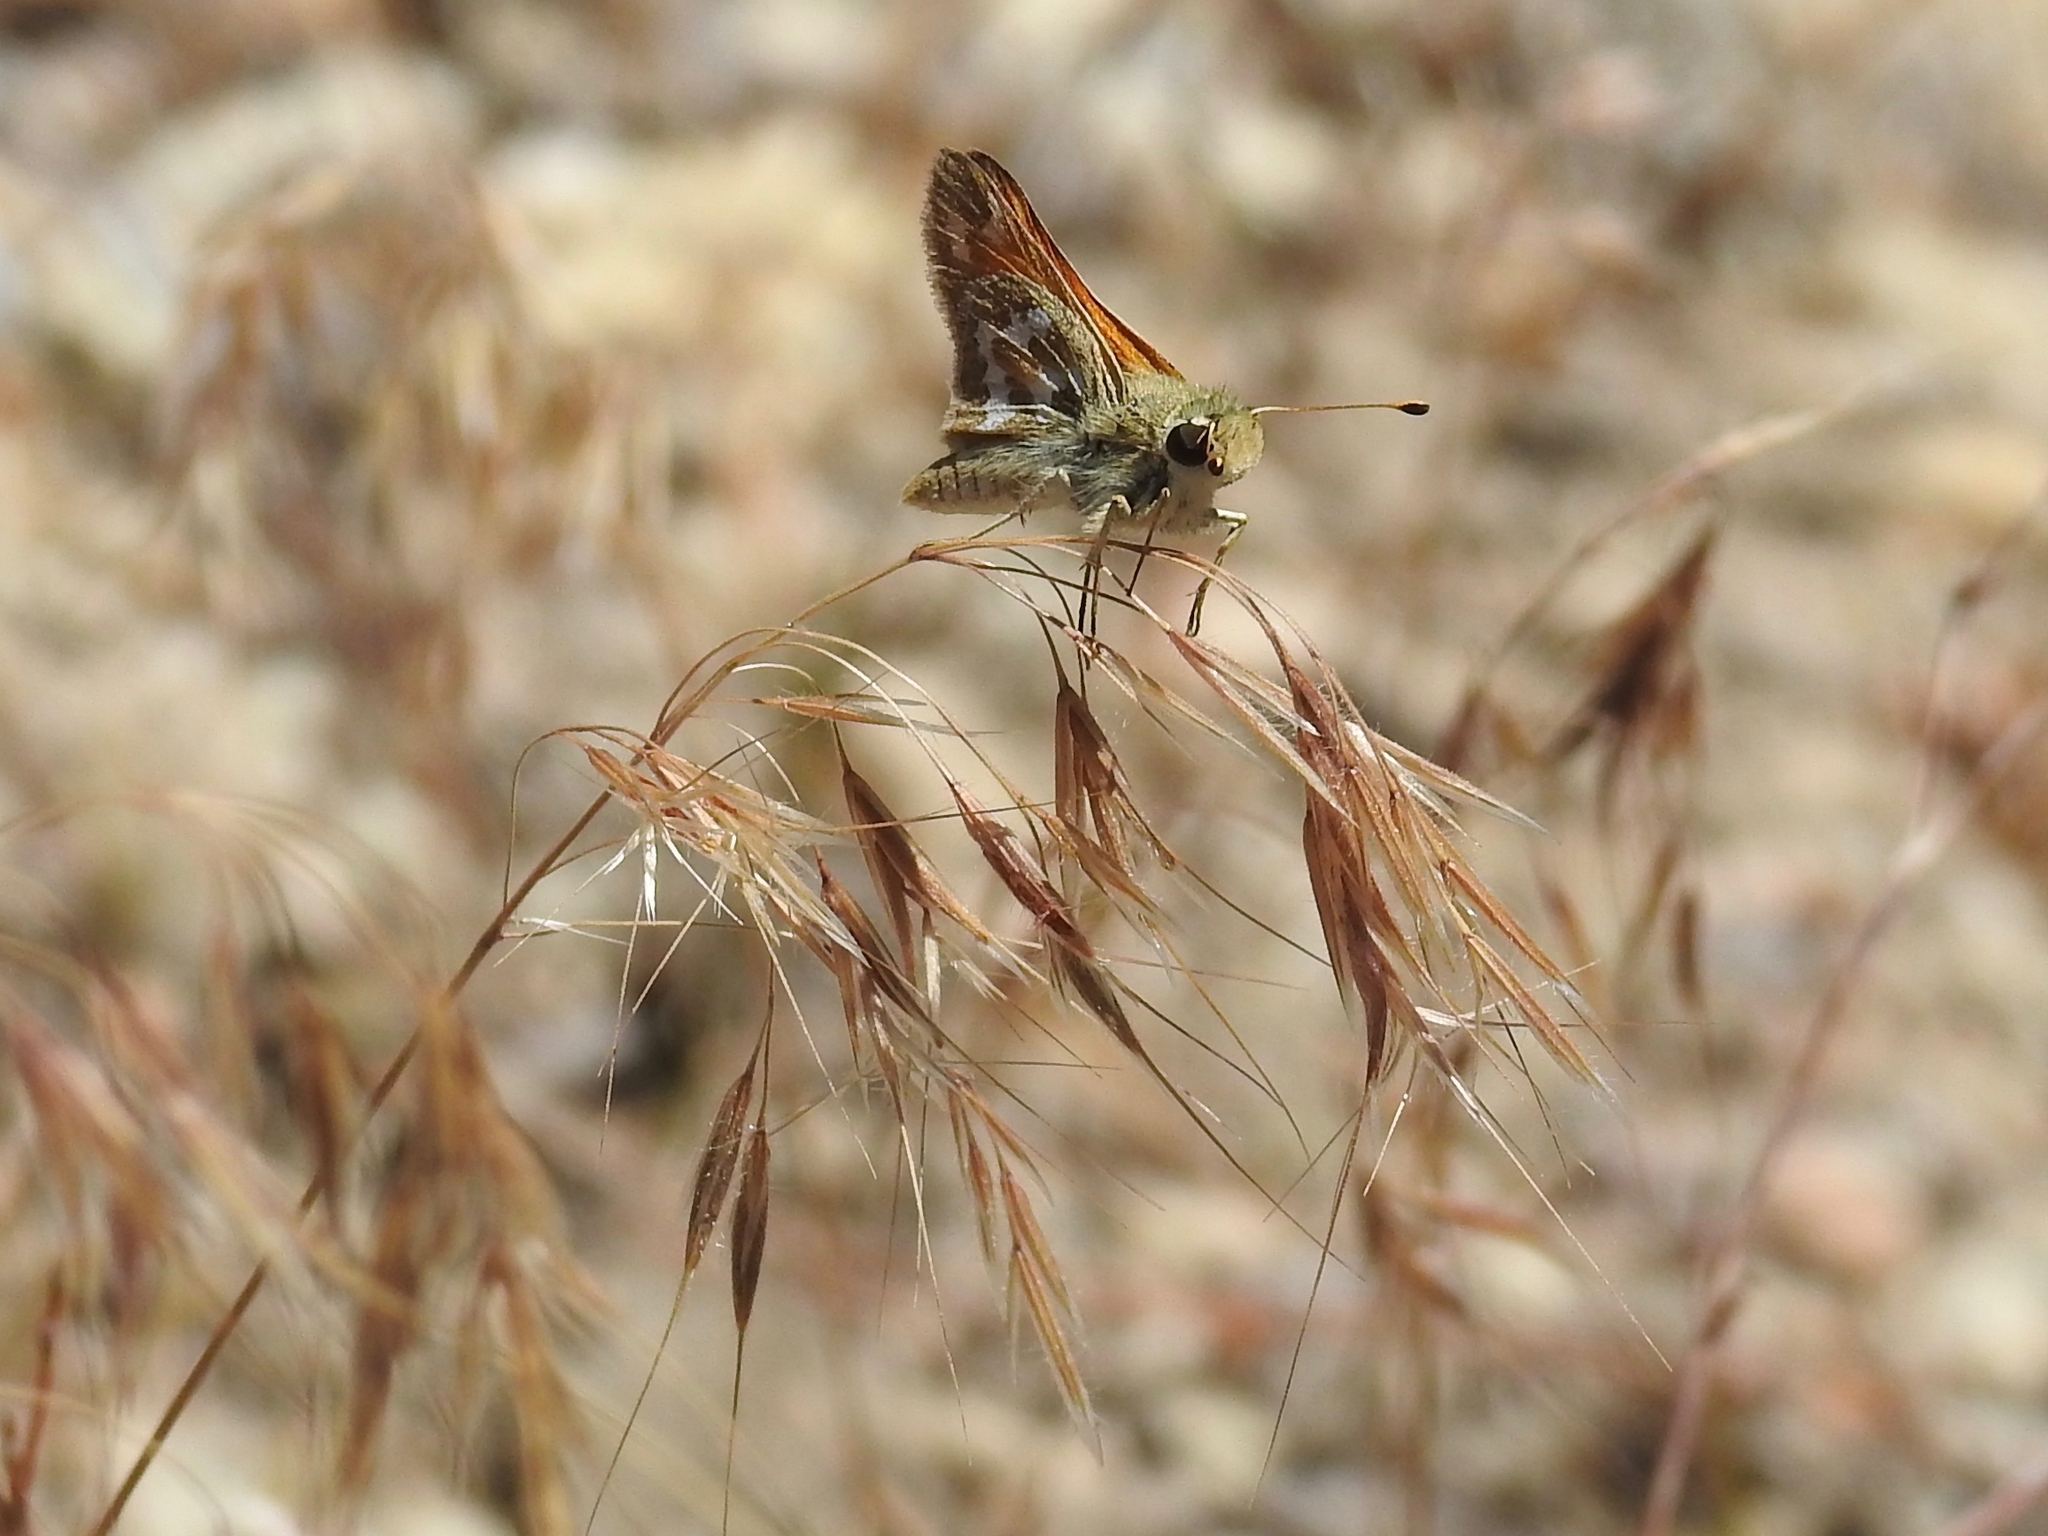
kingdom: Animalia
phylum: Arthropoda
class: Insecta
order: Lepidoptera
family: Hesperiidae
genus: Hesperia
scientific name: Hesperia comma
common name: Common branded skipper
